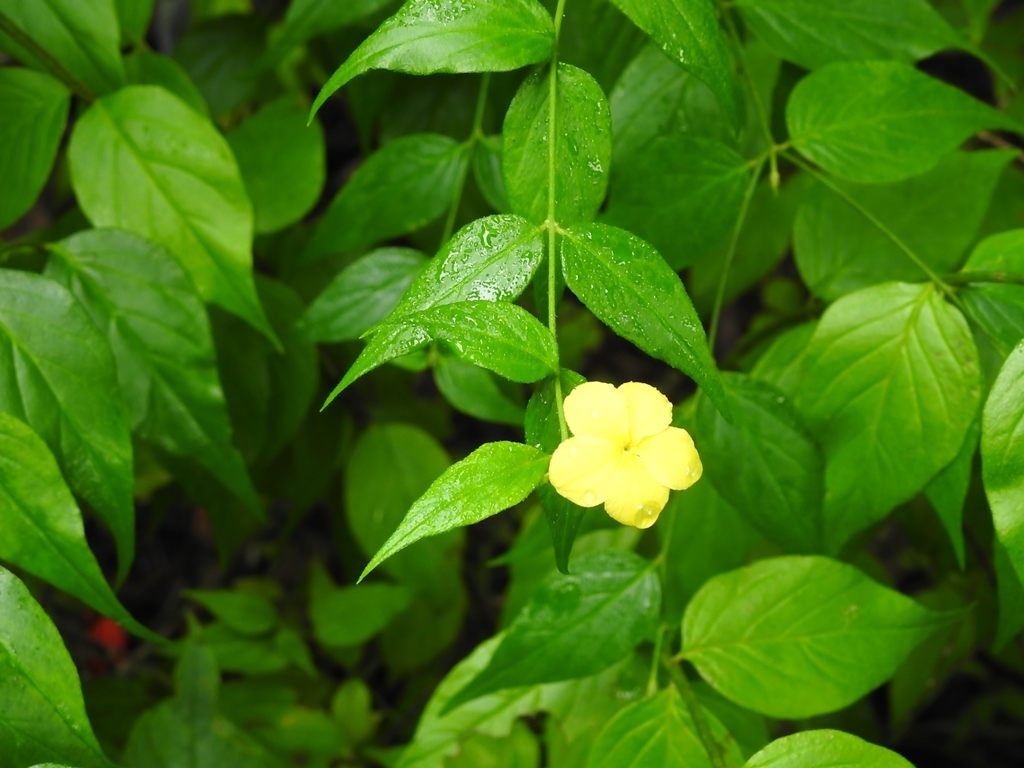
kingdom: Plantae
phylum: Tracheophyta
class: Magnoliopsida
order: Gentianales
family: Apocynaceae
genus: Haplophyton
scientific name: Haplophyton cimicidum
